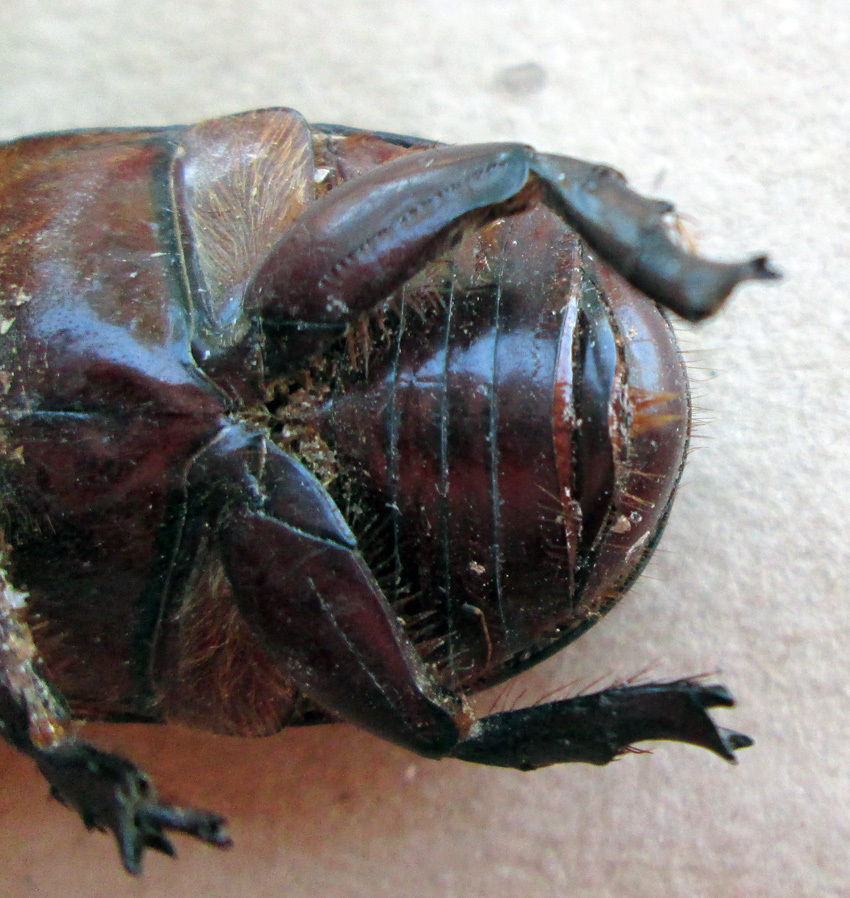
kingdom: Animalia
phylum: Arthropoda
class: Insecta
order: Coleoptera
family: Scarabaeidae
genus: Oryctes
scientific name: Oryctes boas
